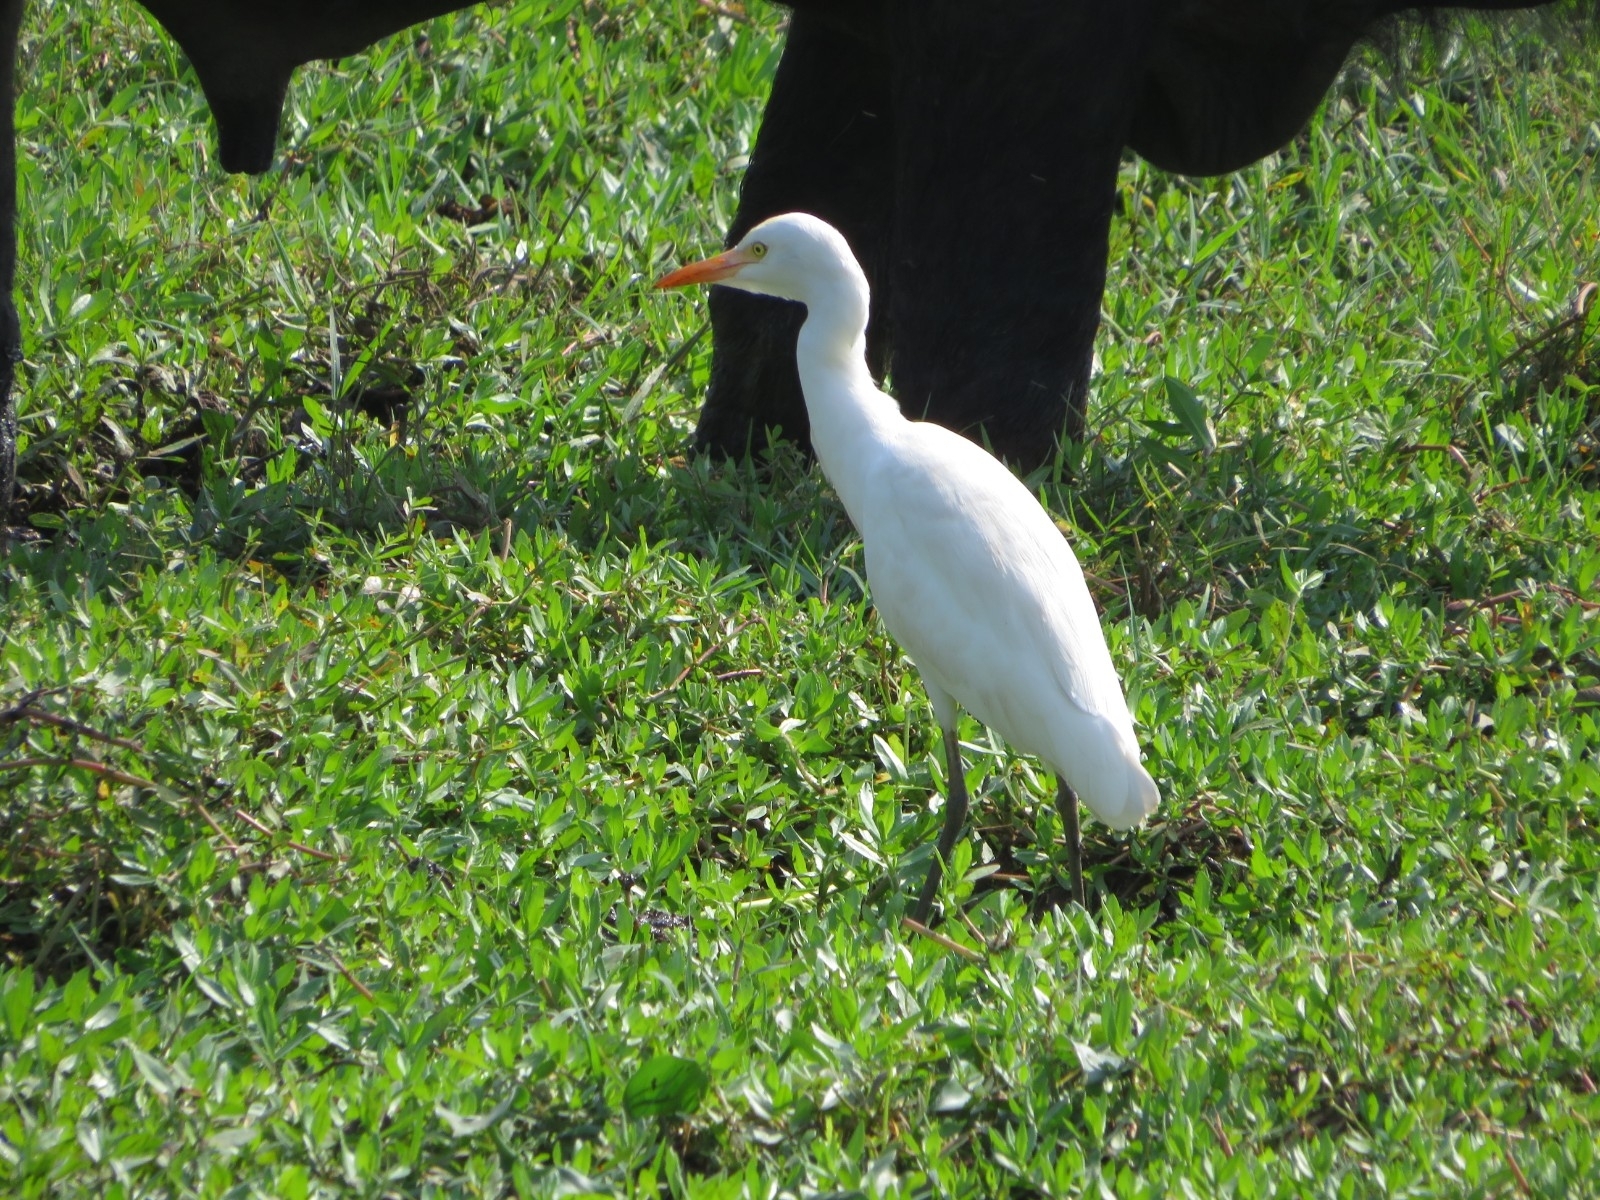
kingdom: Animalia
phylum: Chordata
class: Aves
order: Pelecaniformes
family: Ardeidae
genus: Bubulcus
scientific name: Bubulcus coromandus
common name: Eastern cattle egret
